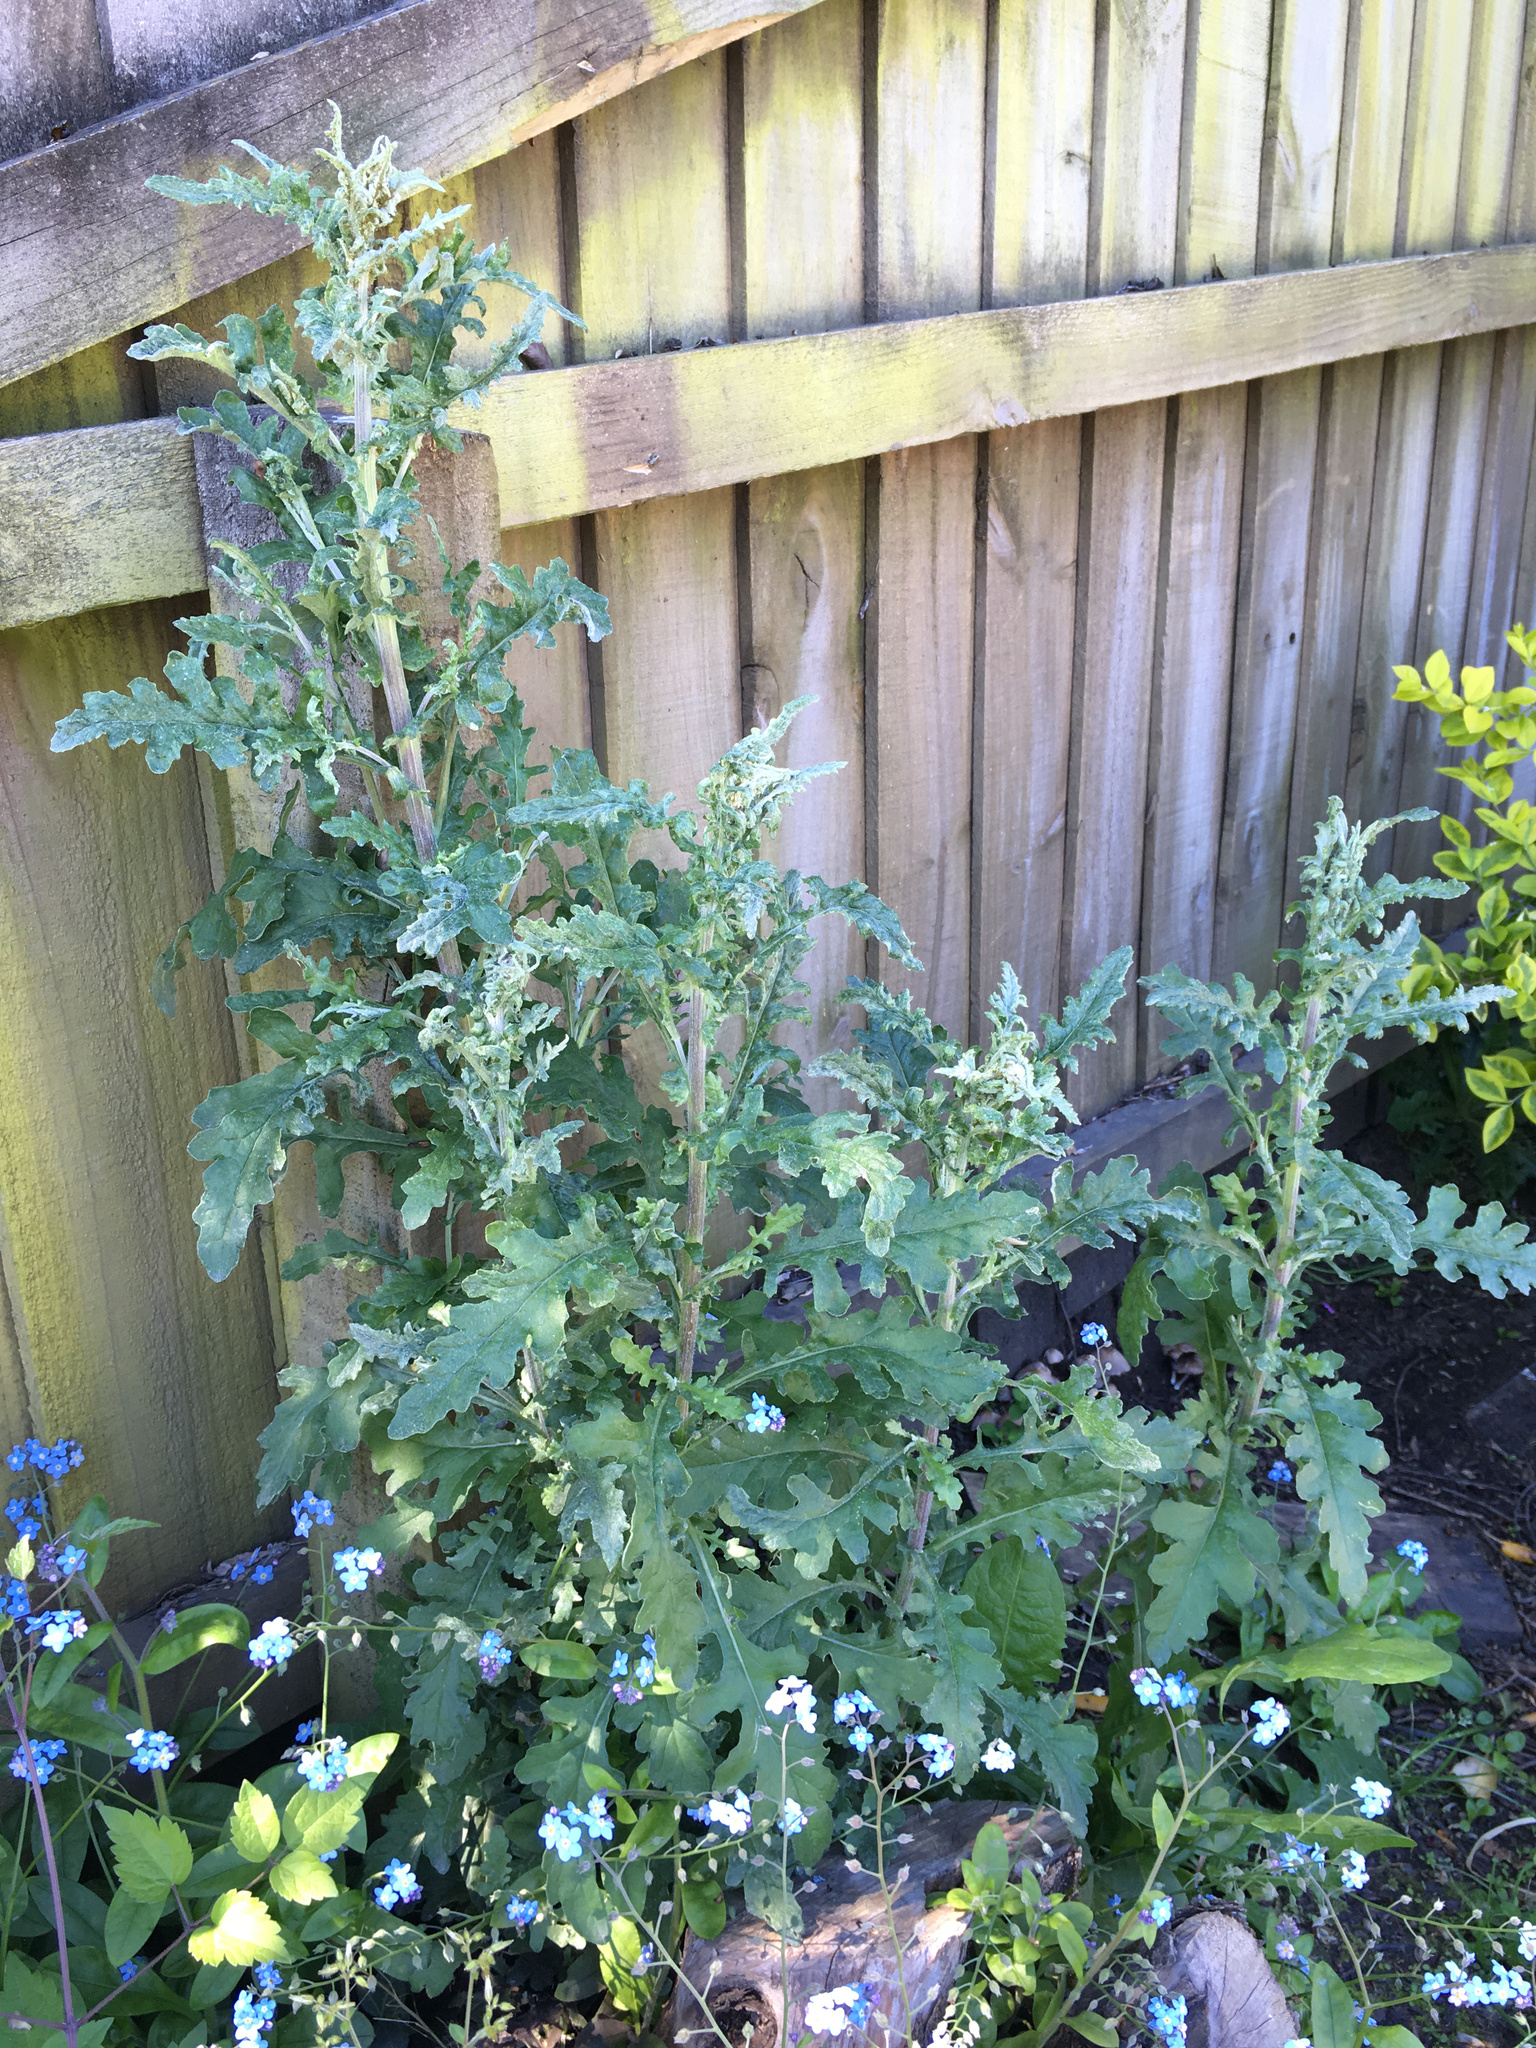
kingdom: Plantae
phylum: Tracheophyta
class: Magnoliopsida
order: Asterales
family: Asteraceae
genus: Senecio
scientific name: Senecio glomeratus
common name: Cutleaf burnweed
